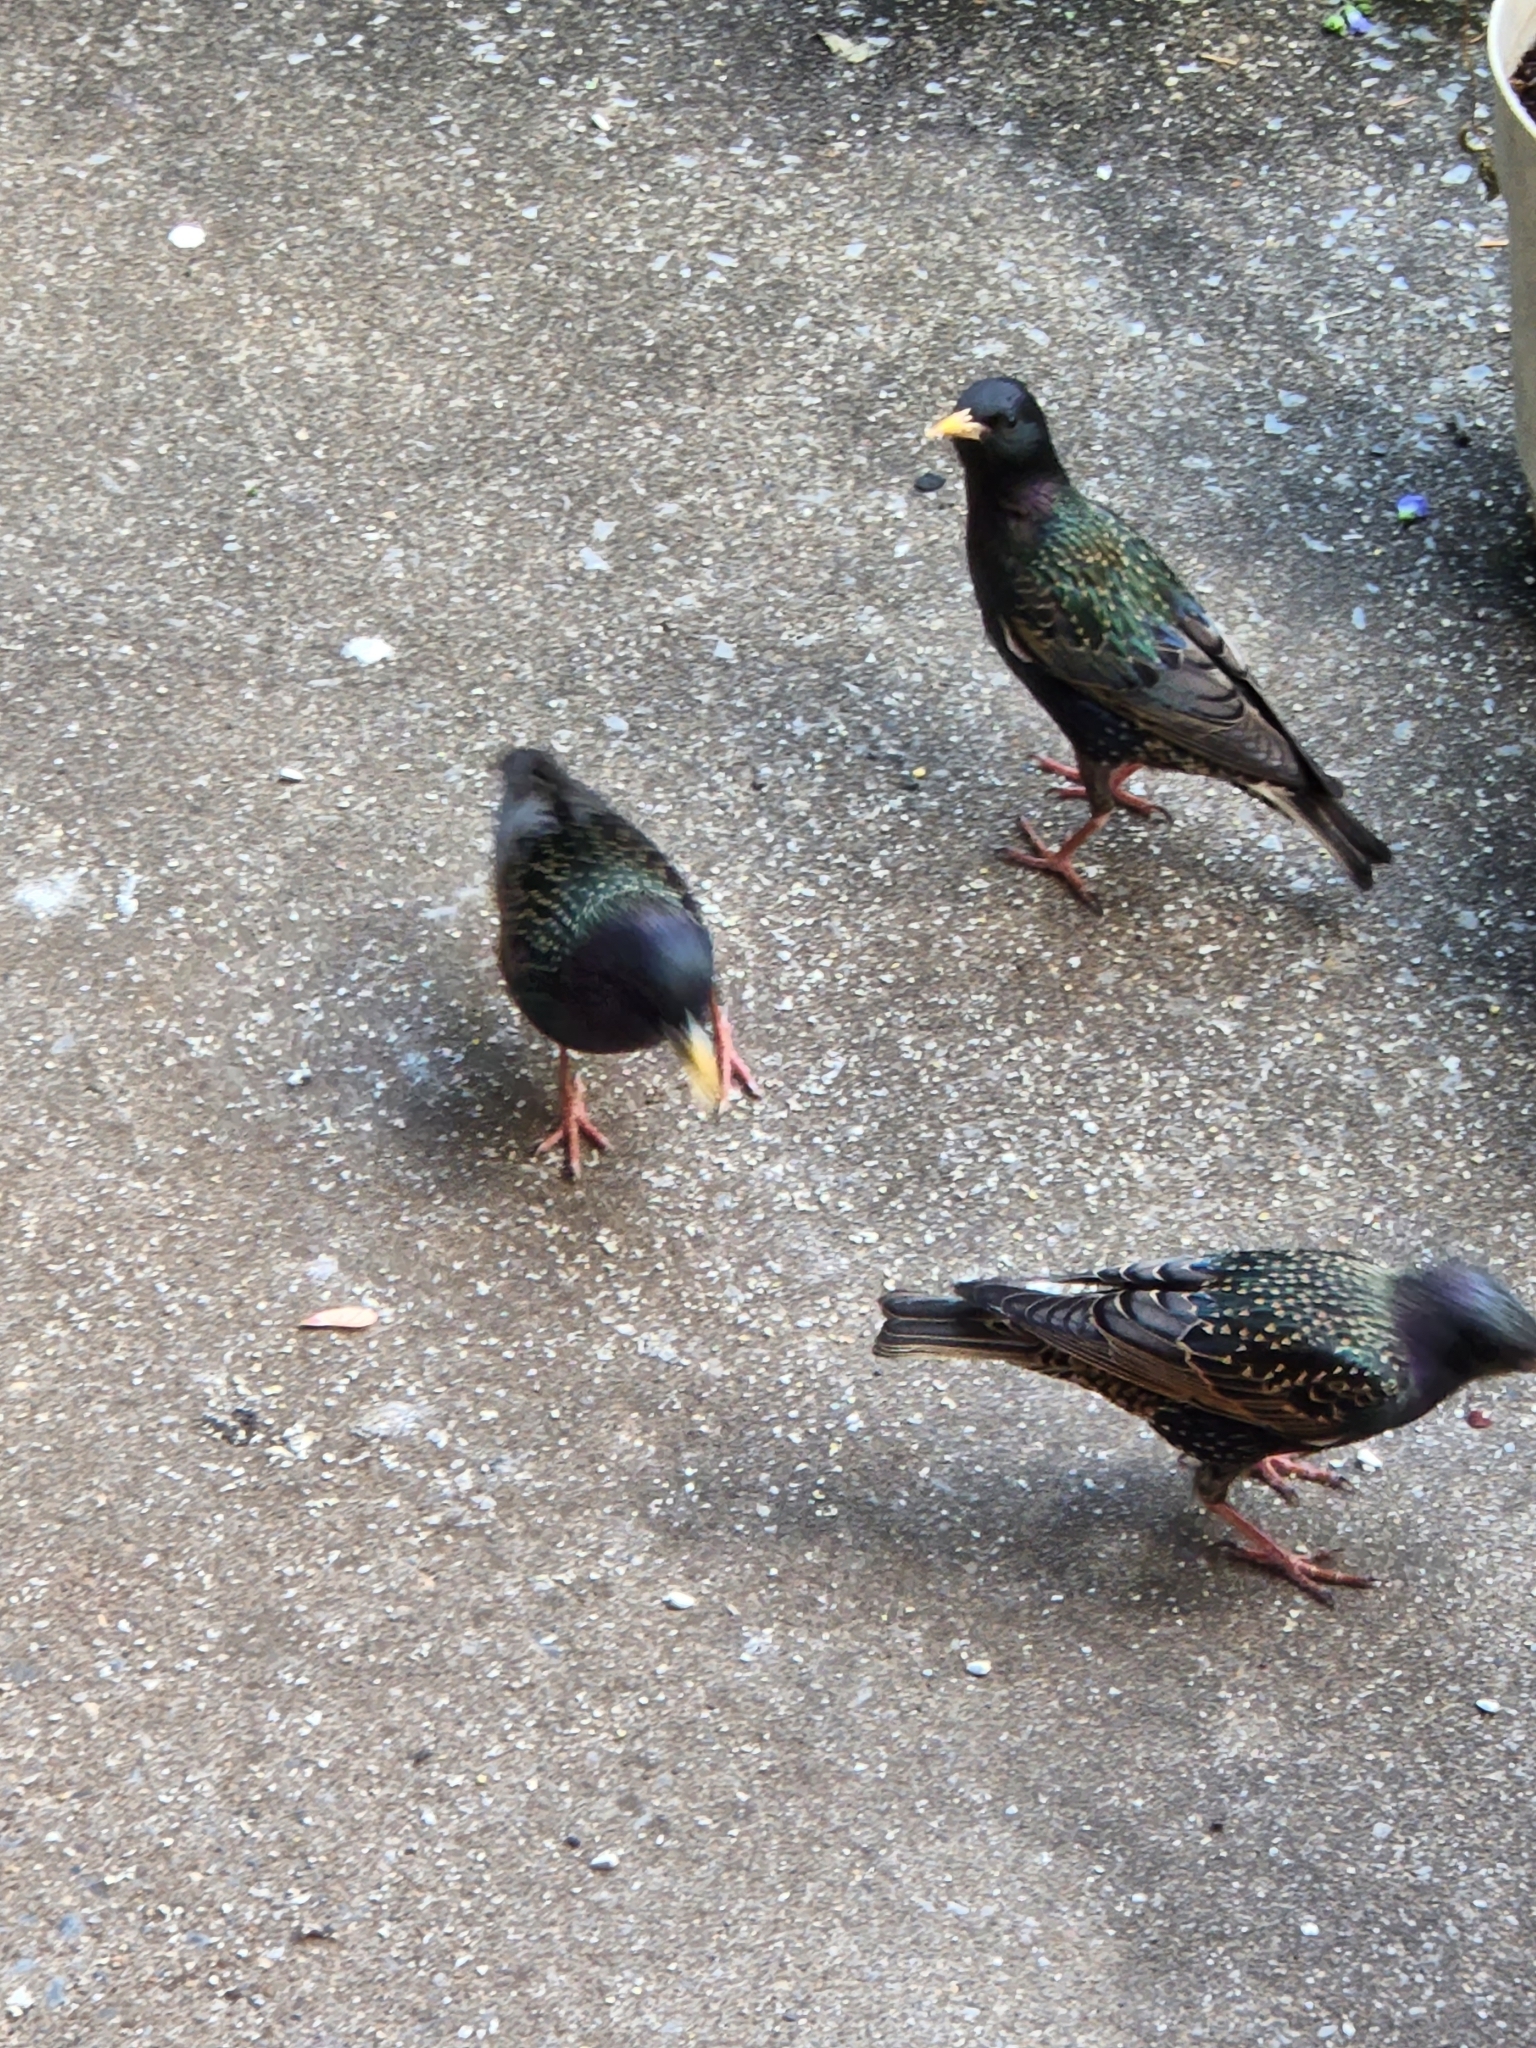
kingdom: Animalia
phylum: Chordata
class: Aves
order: Passeriformes
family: Sturnidae
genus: Sturnus
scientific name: Sturnus vulgaris
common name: Common starling
